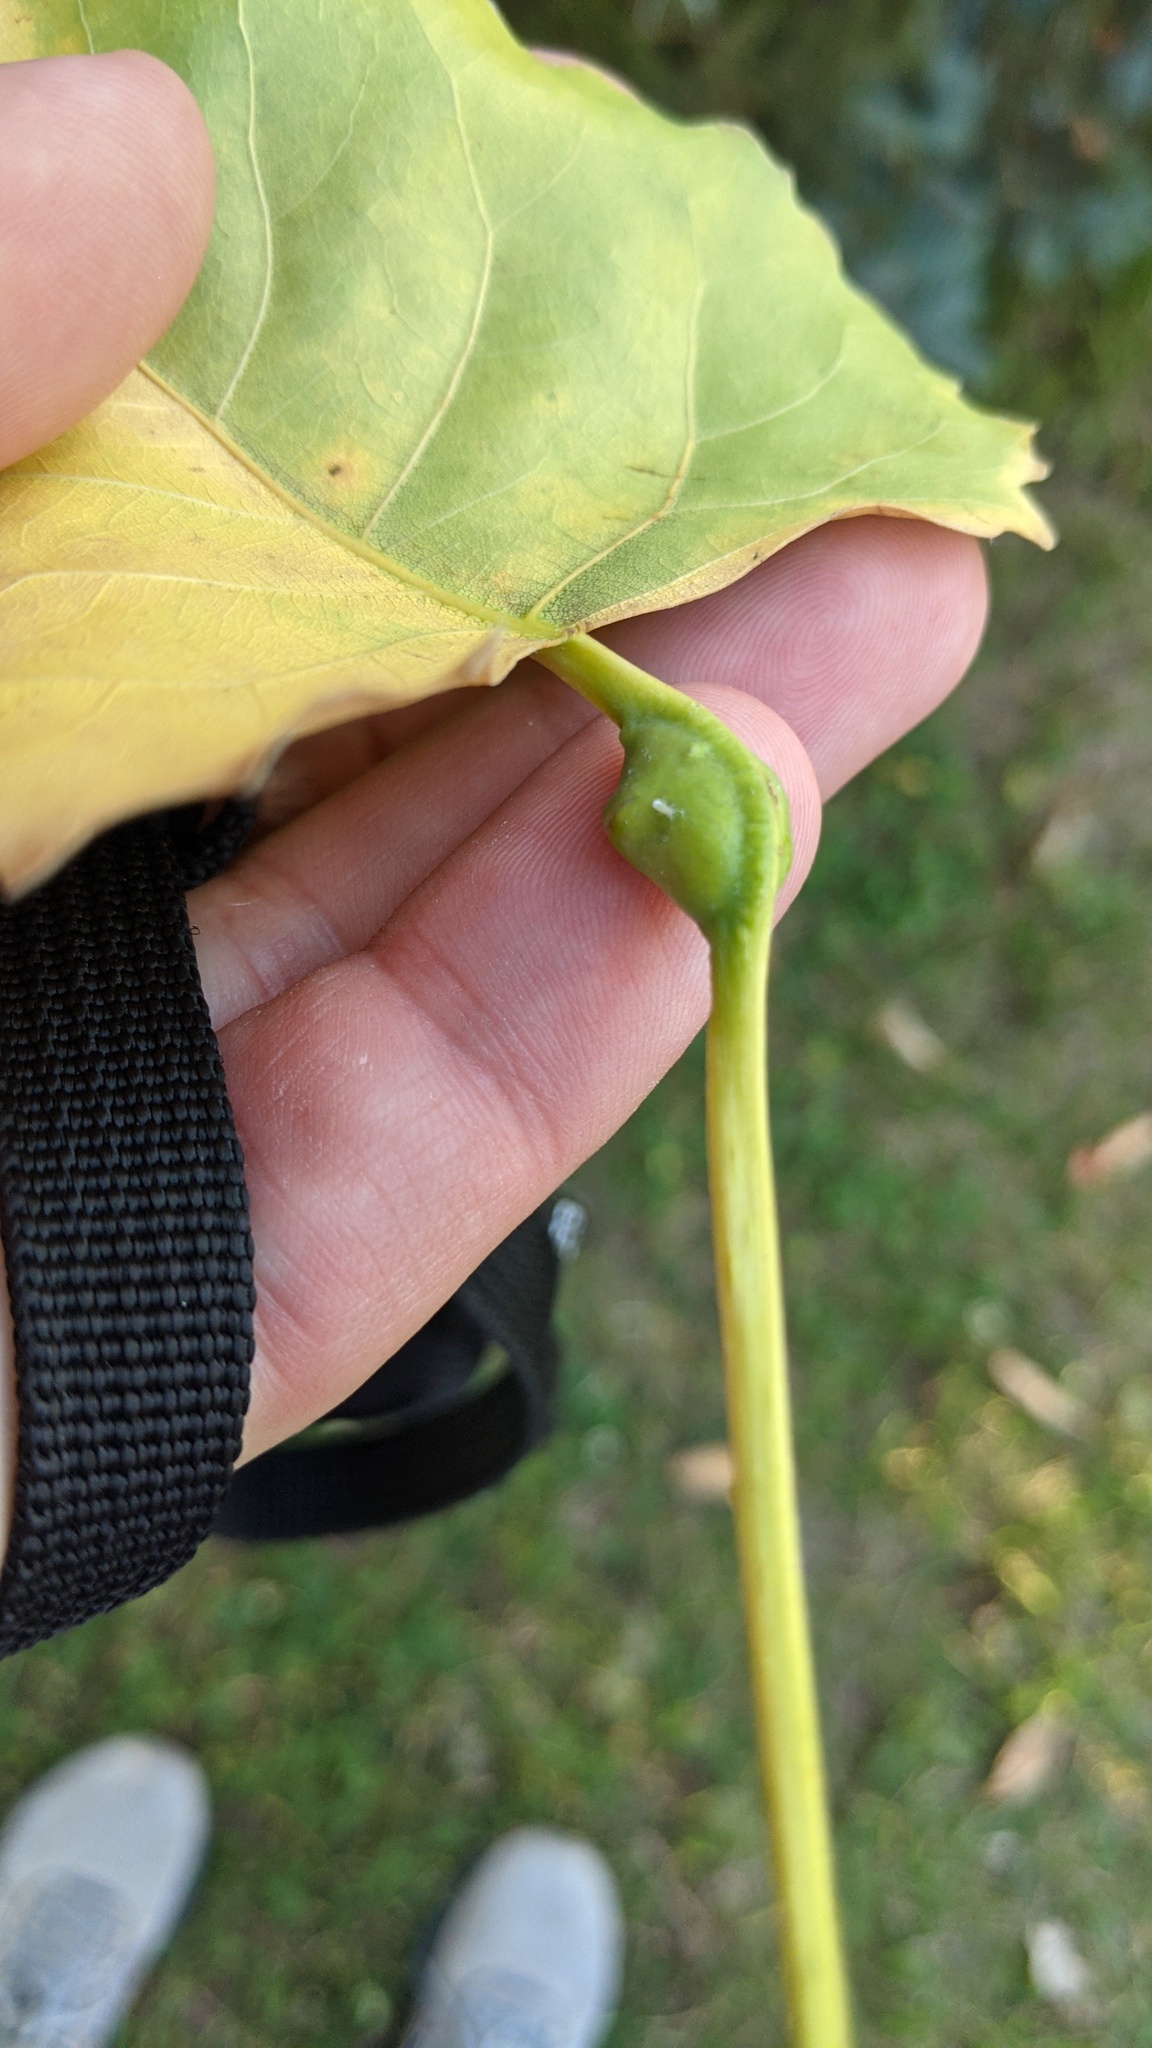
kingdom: Animalia
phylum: Arthropoda
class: Insecta
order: Hemiptera
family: Aphididae
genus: Pemphigus
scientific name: Pemphigus populitransversus
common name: Poplar petiolegall aphid
